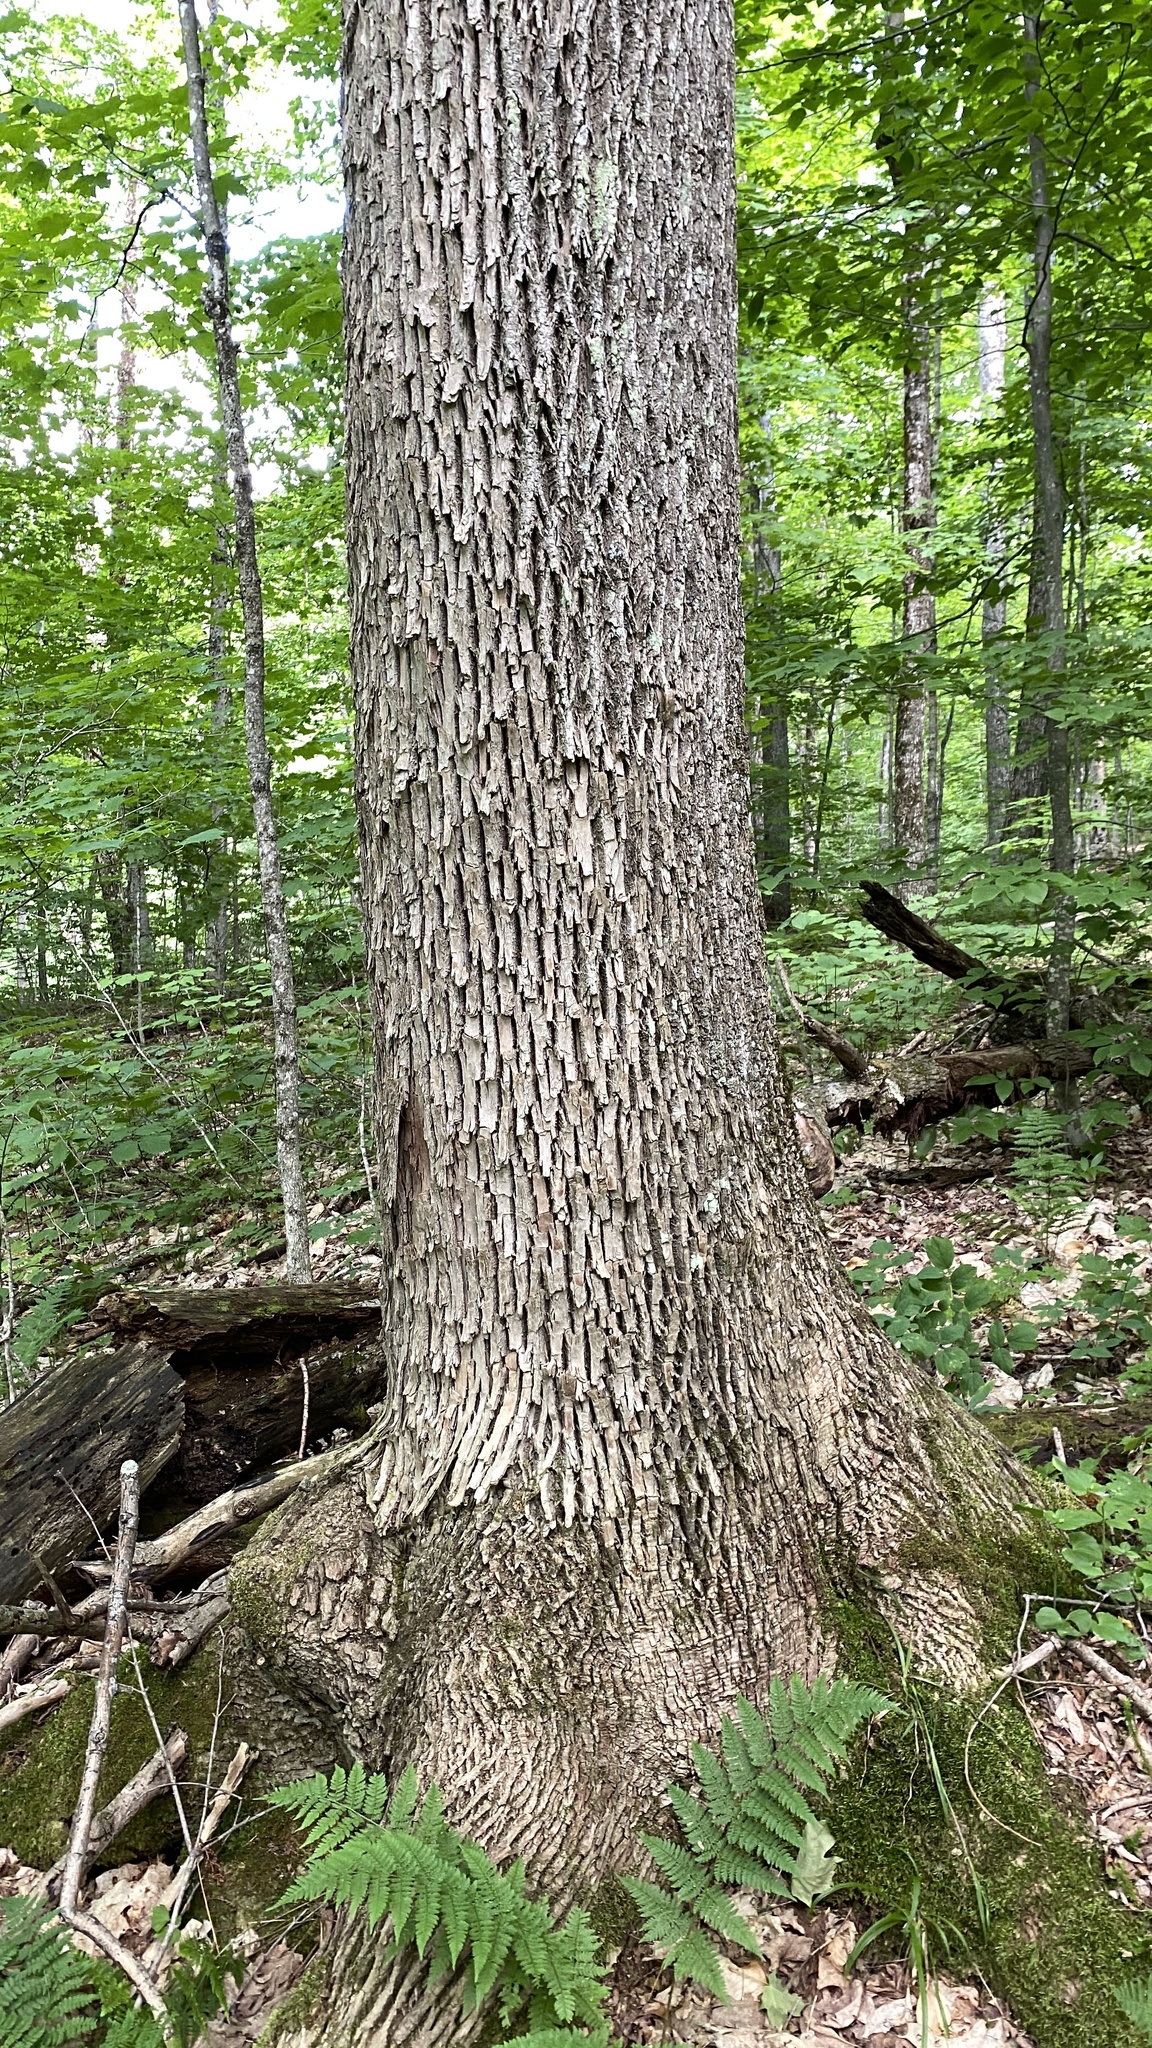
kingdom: Plantae
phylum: Tracheophyta
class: Magnoliopsida
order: Lamiales
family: Oleaceae
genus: Fraxinus
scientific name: Fraxinus americana
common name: White ash
